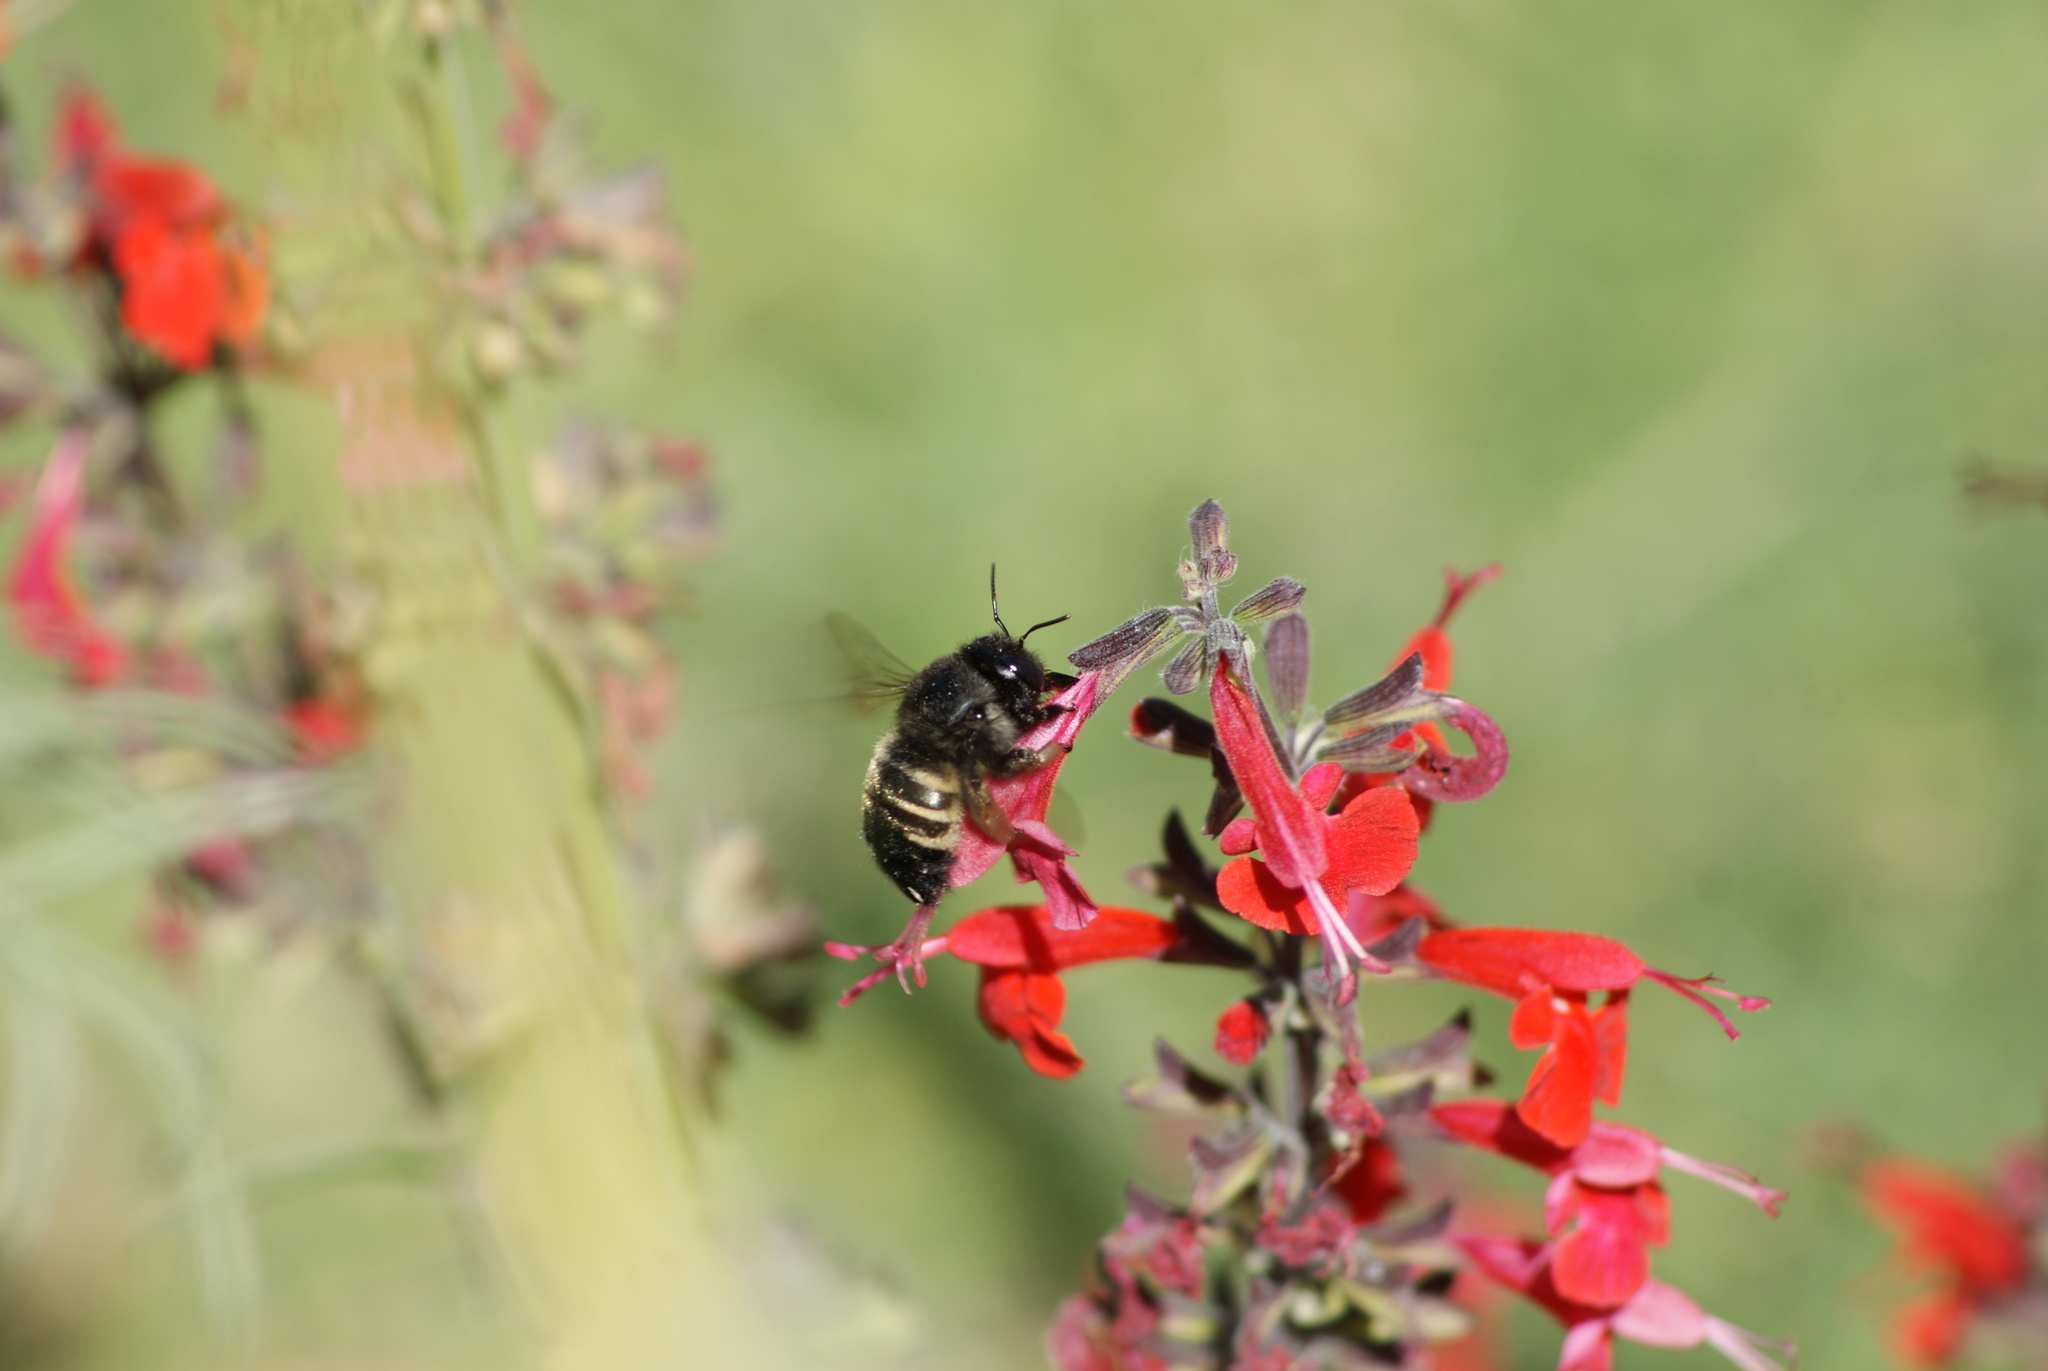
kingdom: Animalia
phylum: Arthropoda
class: Insecta
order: Hymenoptera
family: Apidae
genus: Xylocopa
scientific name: Xylocopa tabaniformis
